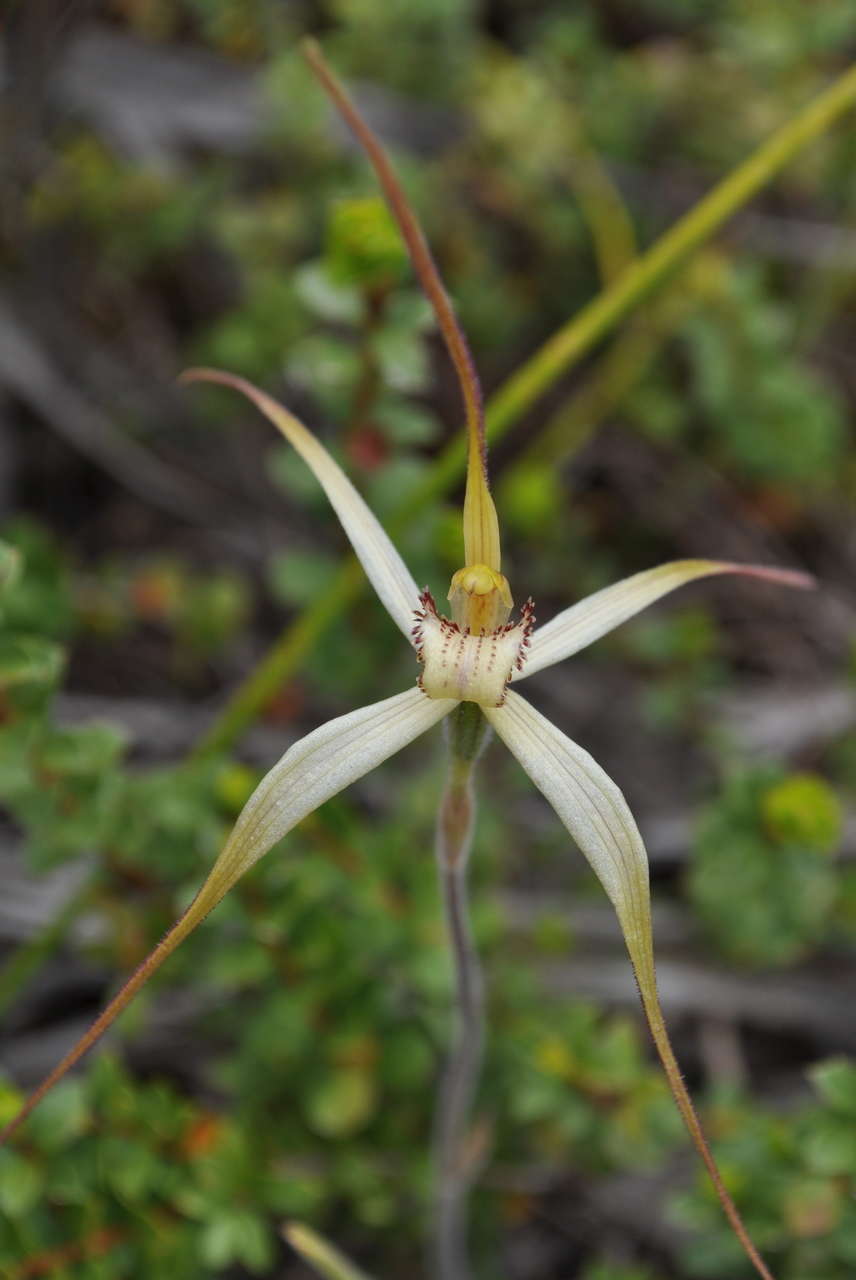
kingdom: Plantae
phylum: Tracheophyta
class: Liliopsida
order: Asparagales
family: Orchidaceae
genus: Caladenia
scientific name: Caladenia fragrantissima
